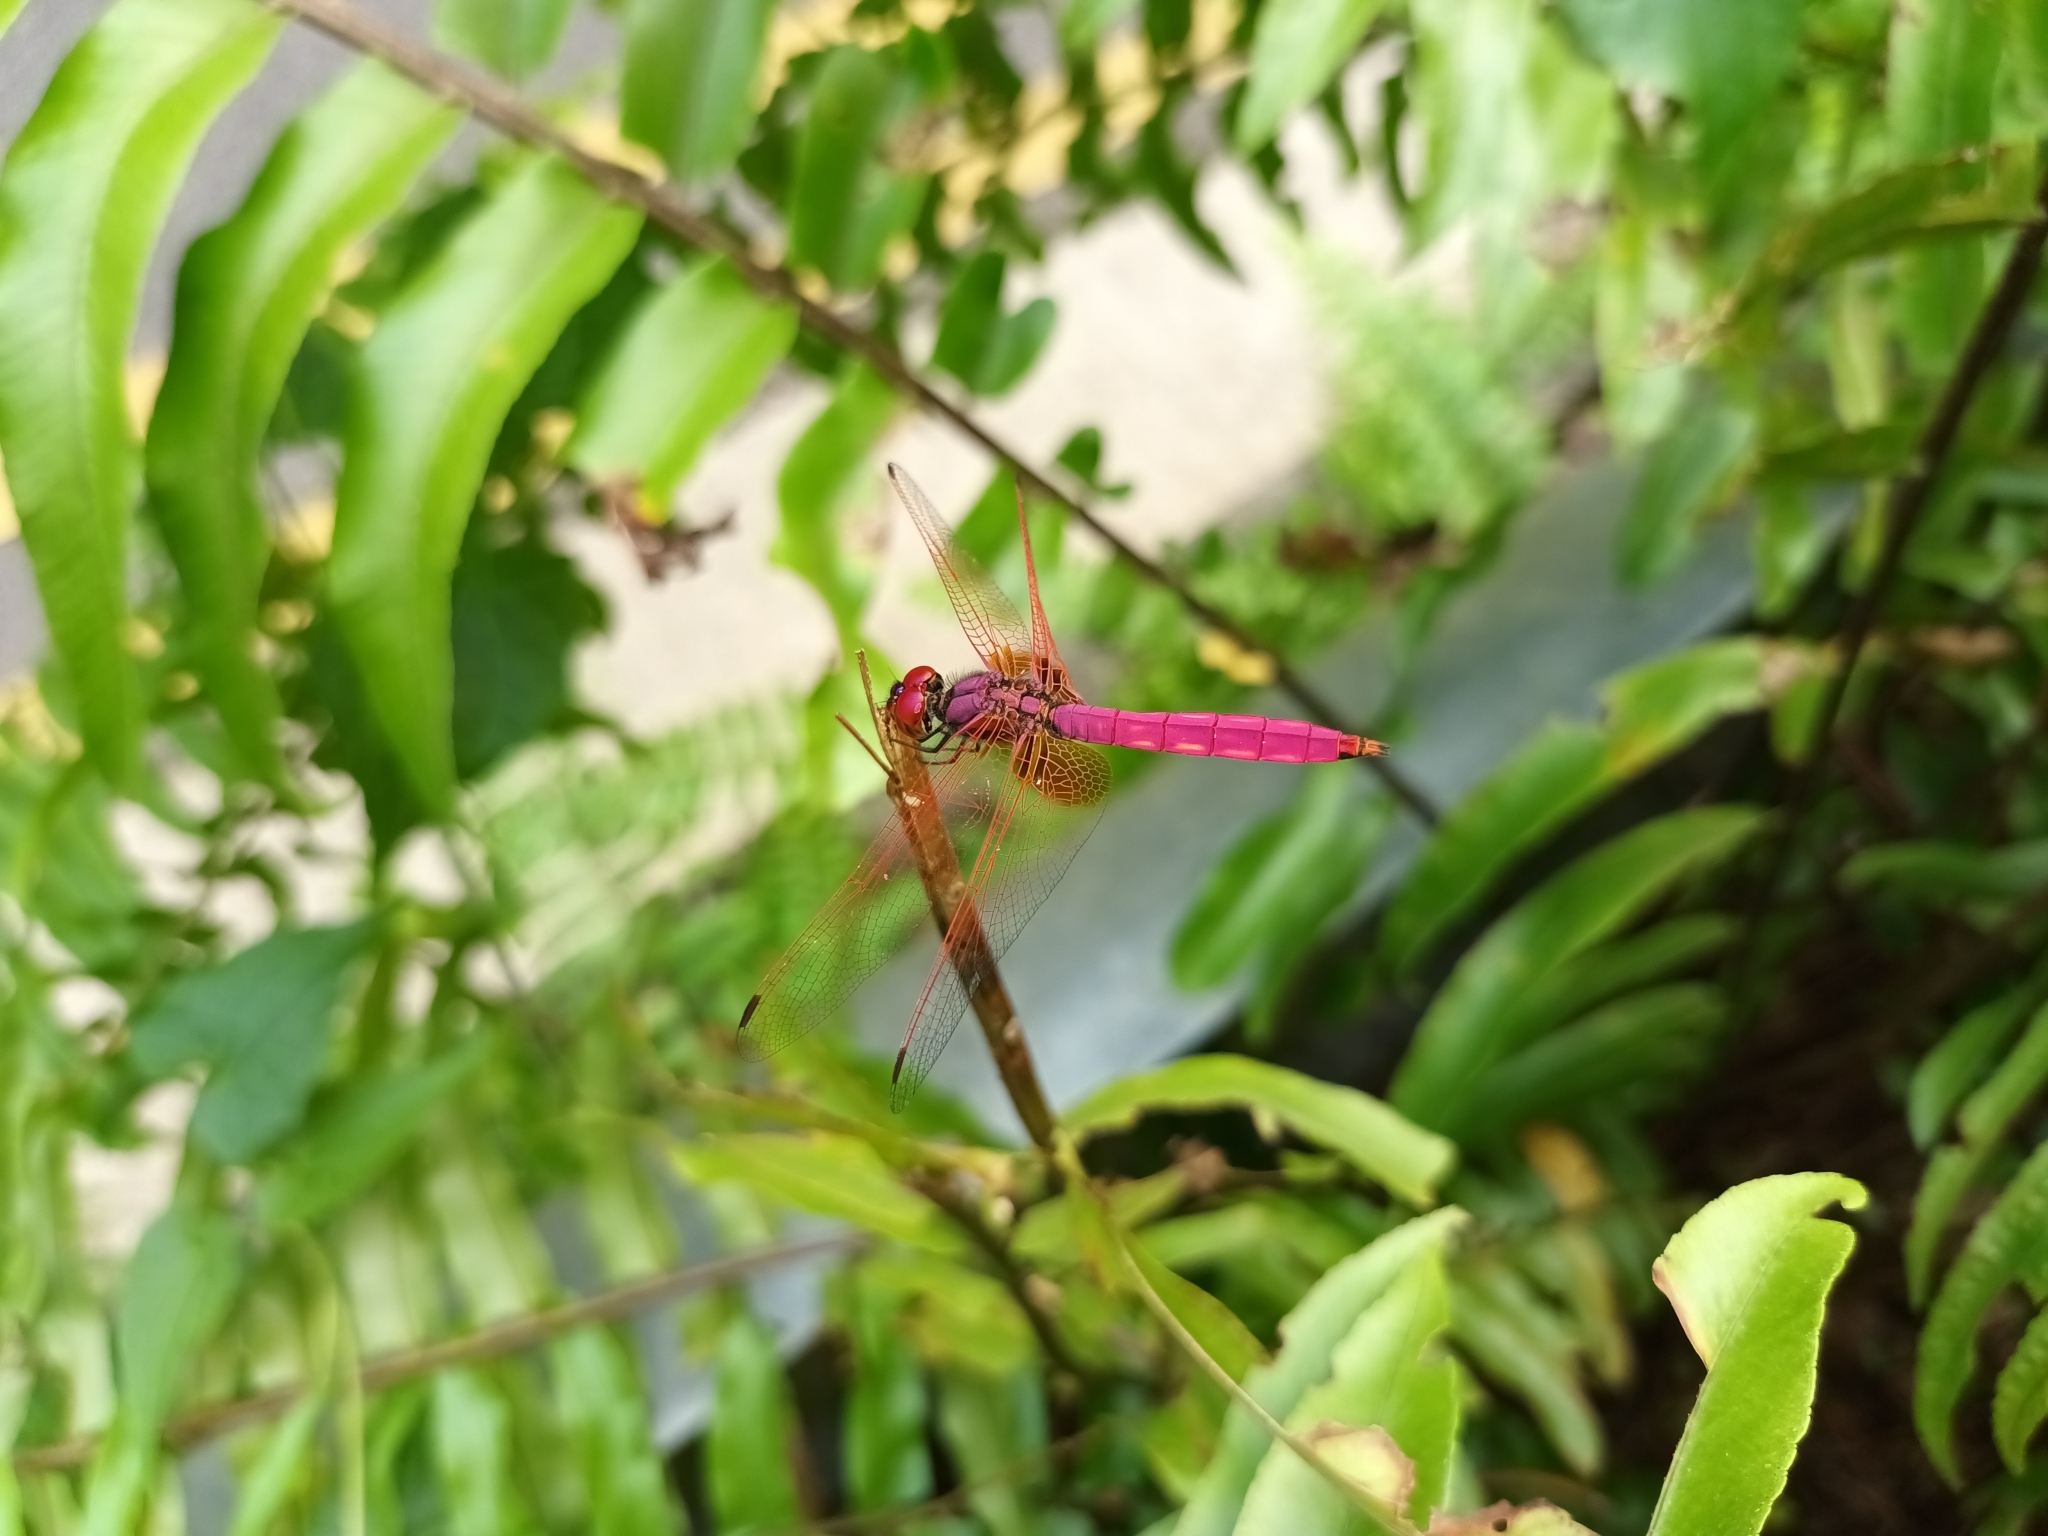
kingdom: Animalia
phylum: Arthropoda
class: Insecta
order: Odonata
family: Libellulidae
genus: Trithemis
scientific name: Trithemis aurora
